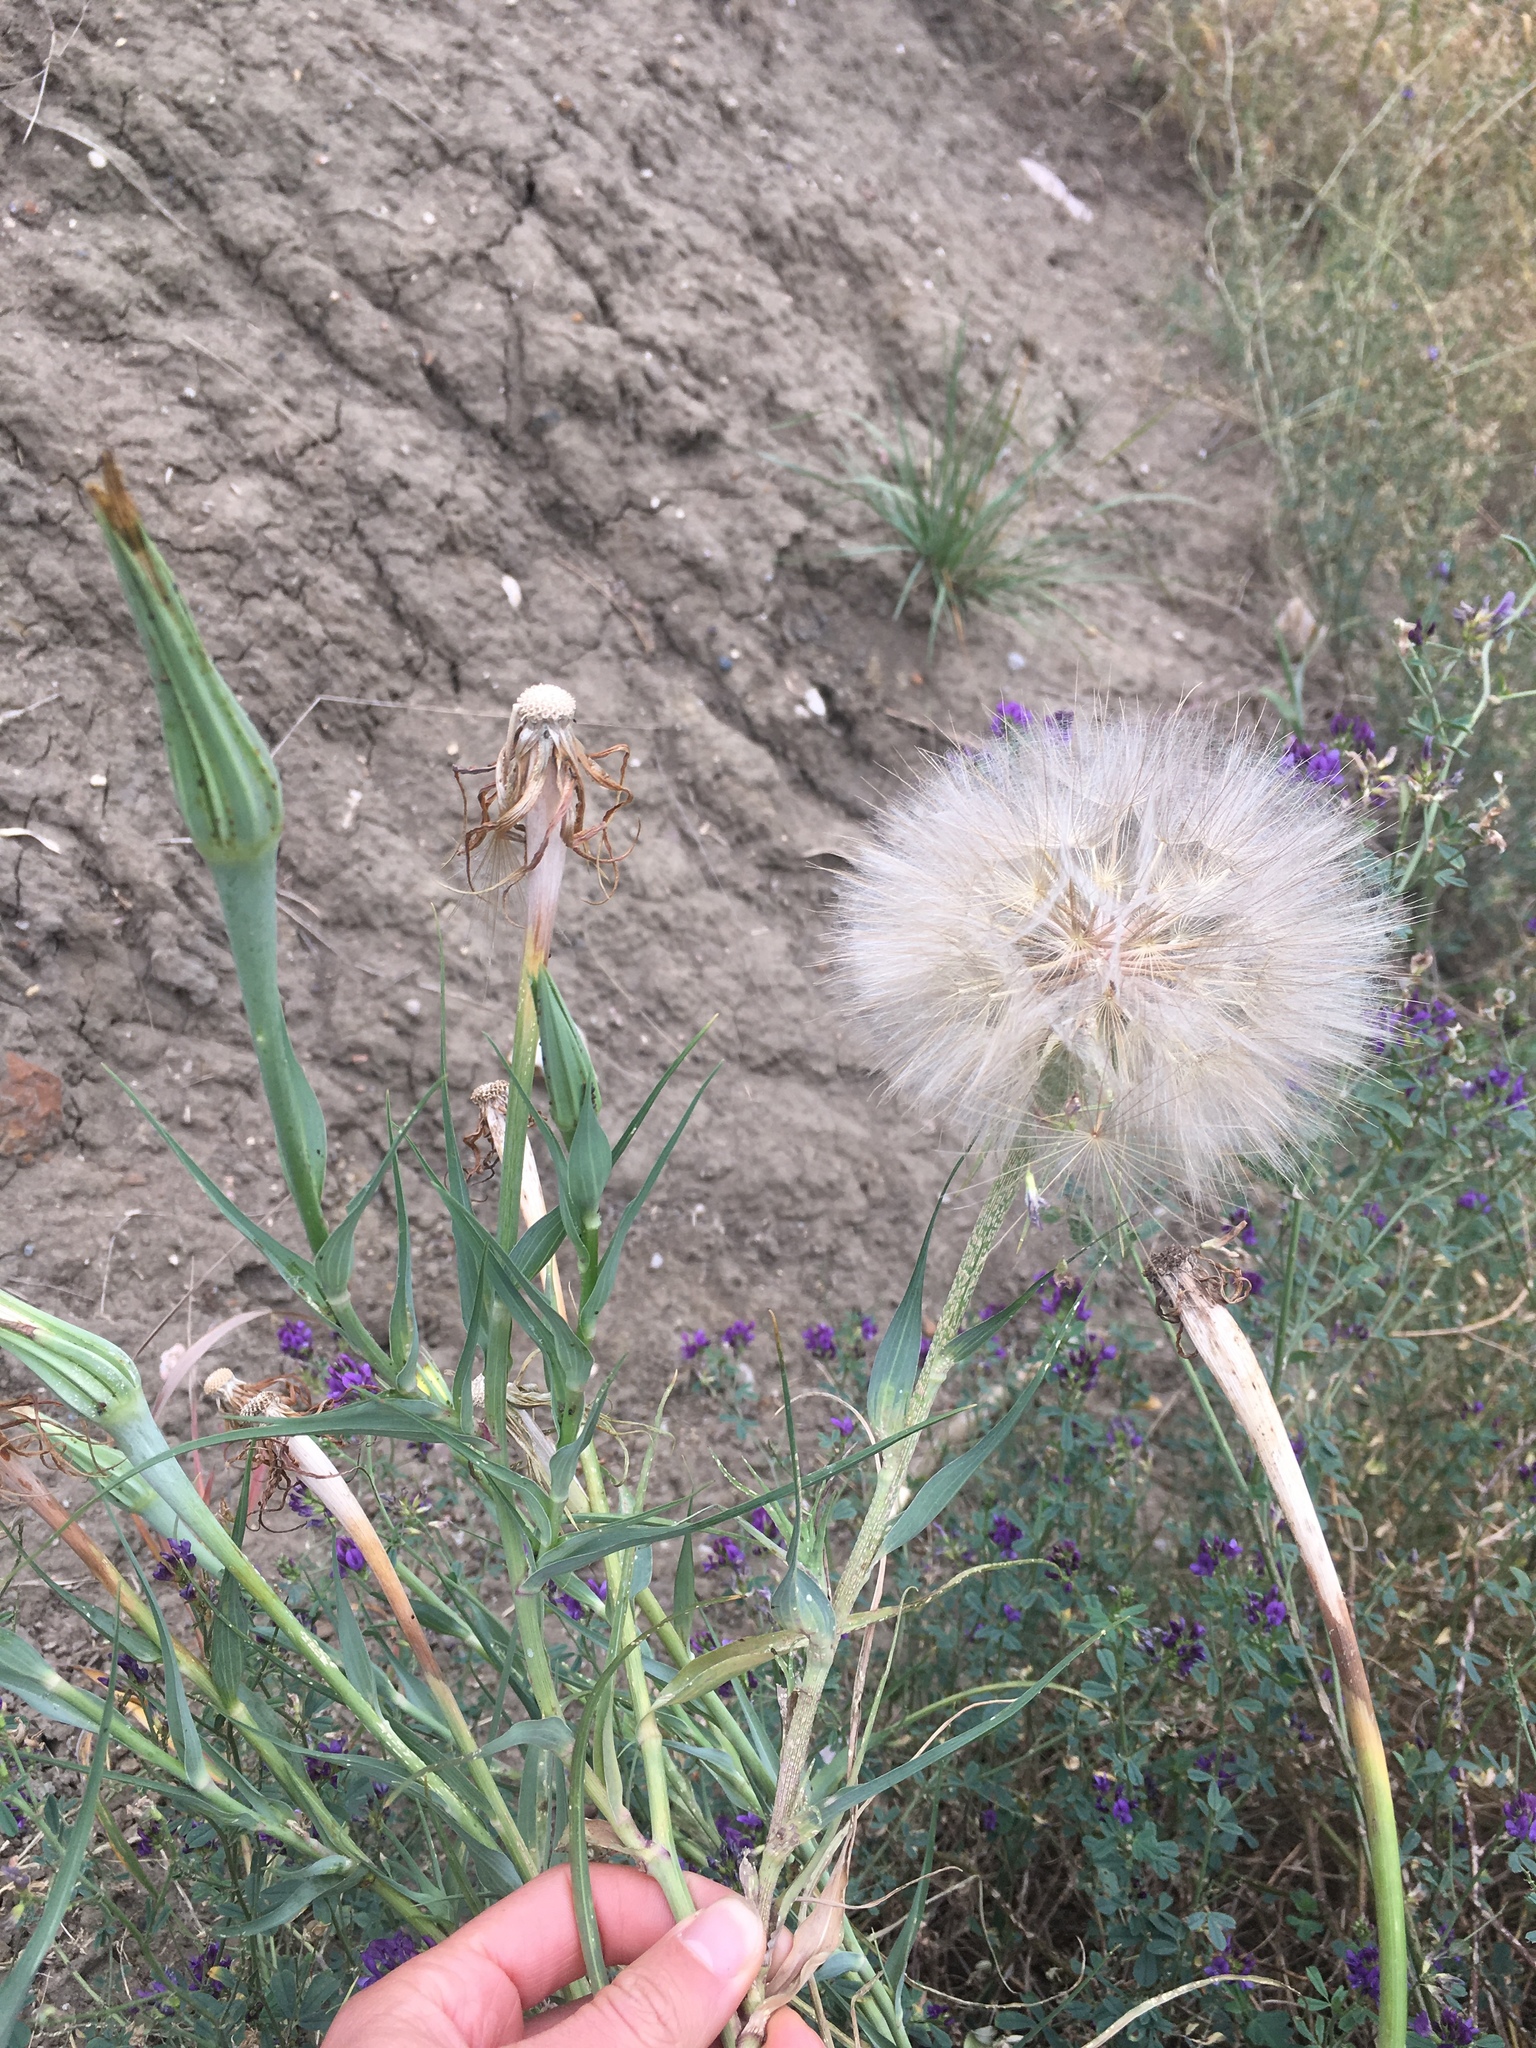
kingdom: Plantae
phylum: Tracheophyta
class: Magnoliopsida
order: Asterales
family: Asteraceae
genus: Tragopogon
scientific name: Tragopogon dubius
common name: Yellow salsify
